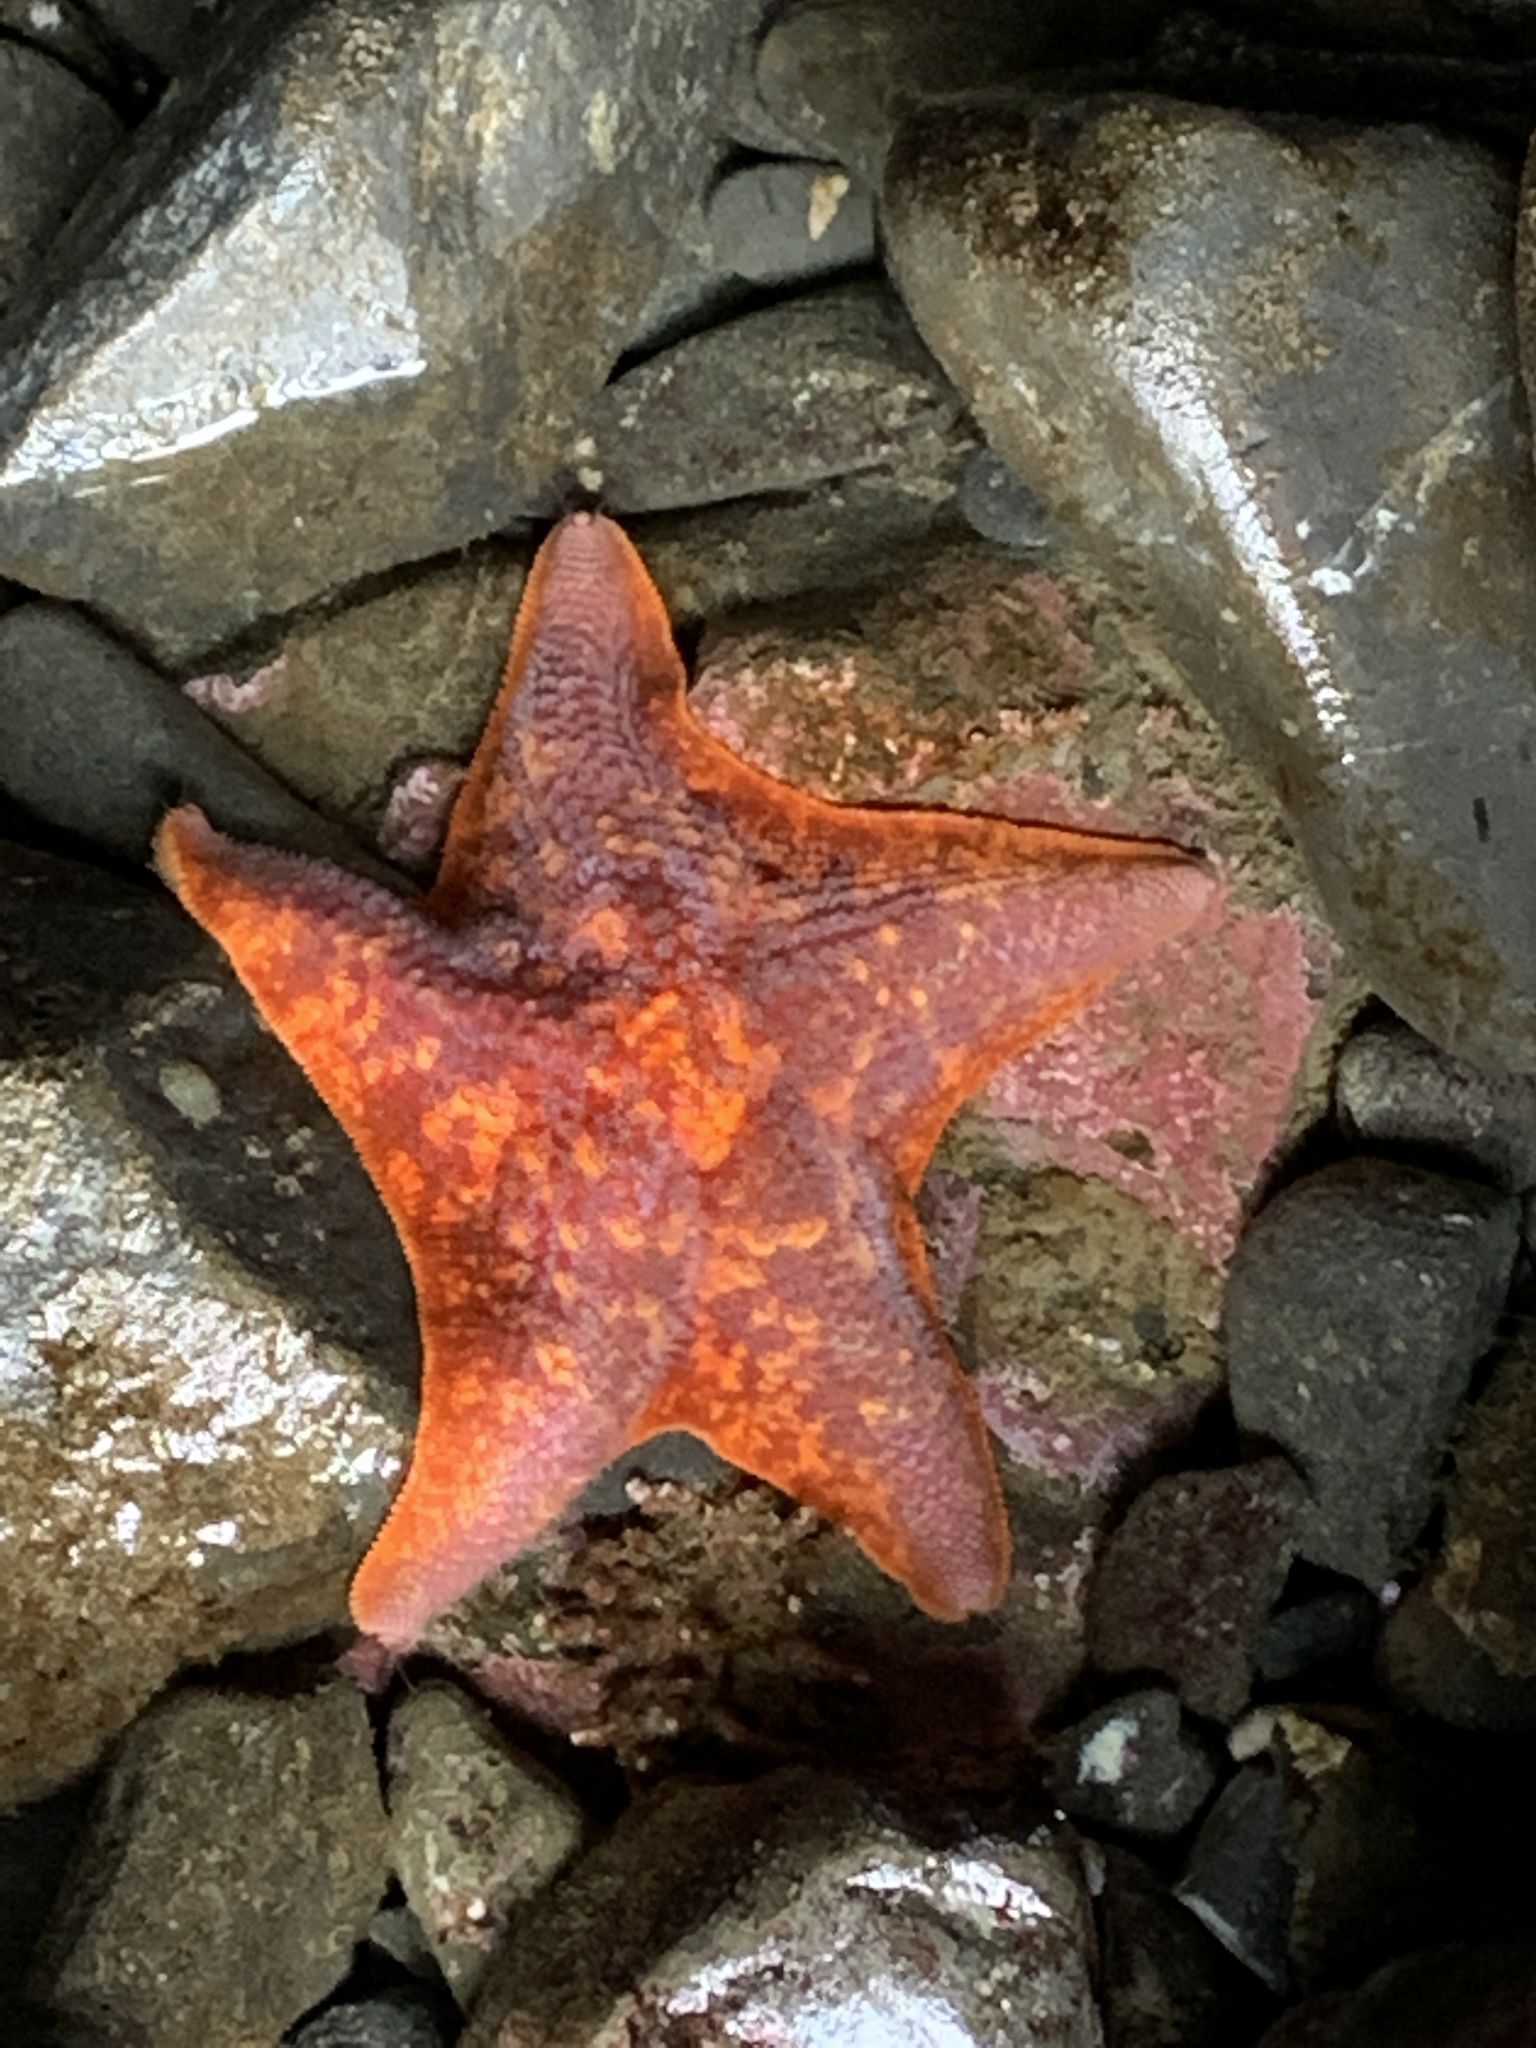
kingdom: Animalia
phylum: Echinodermata
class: Asteroidea
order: Valvatida
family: Asterinidae
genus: Patiria
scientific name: Patiria miniata
